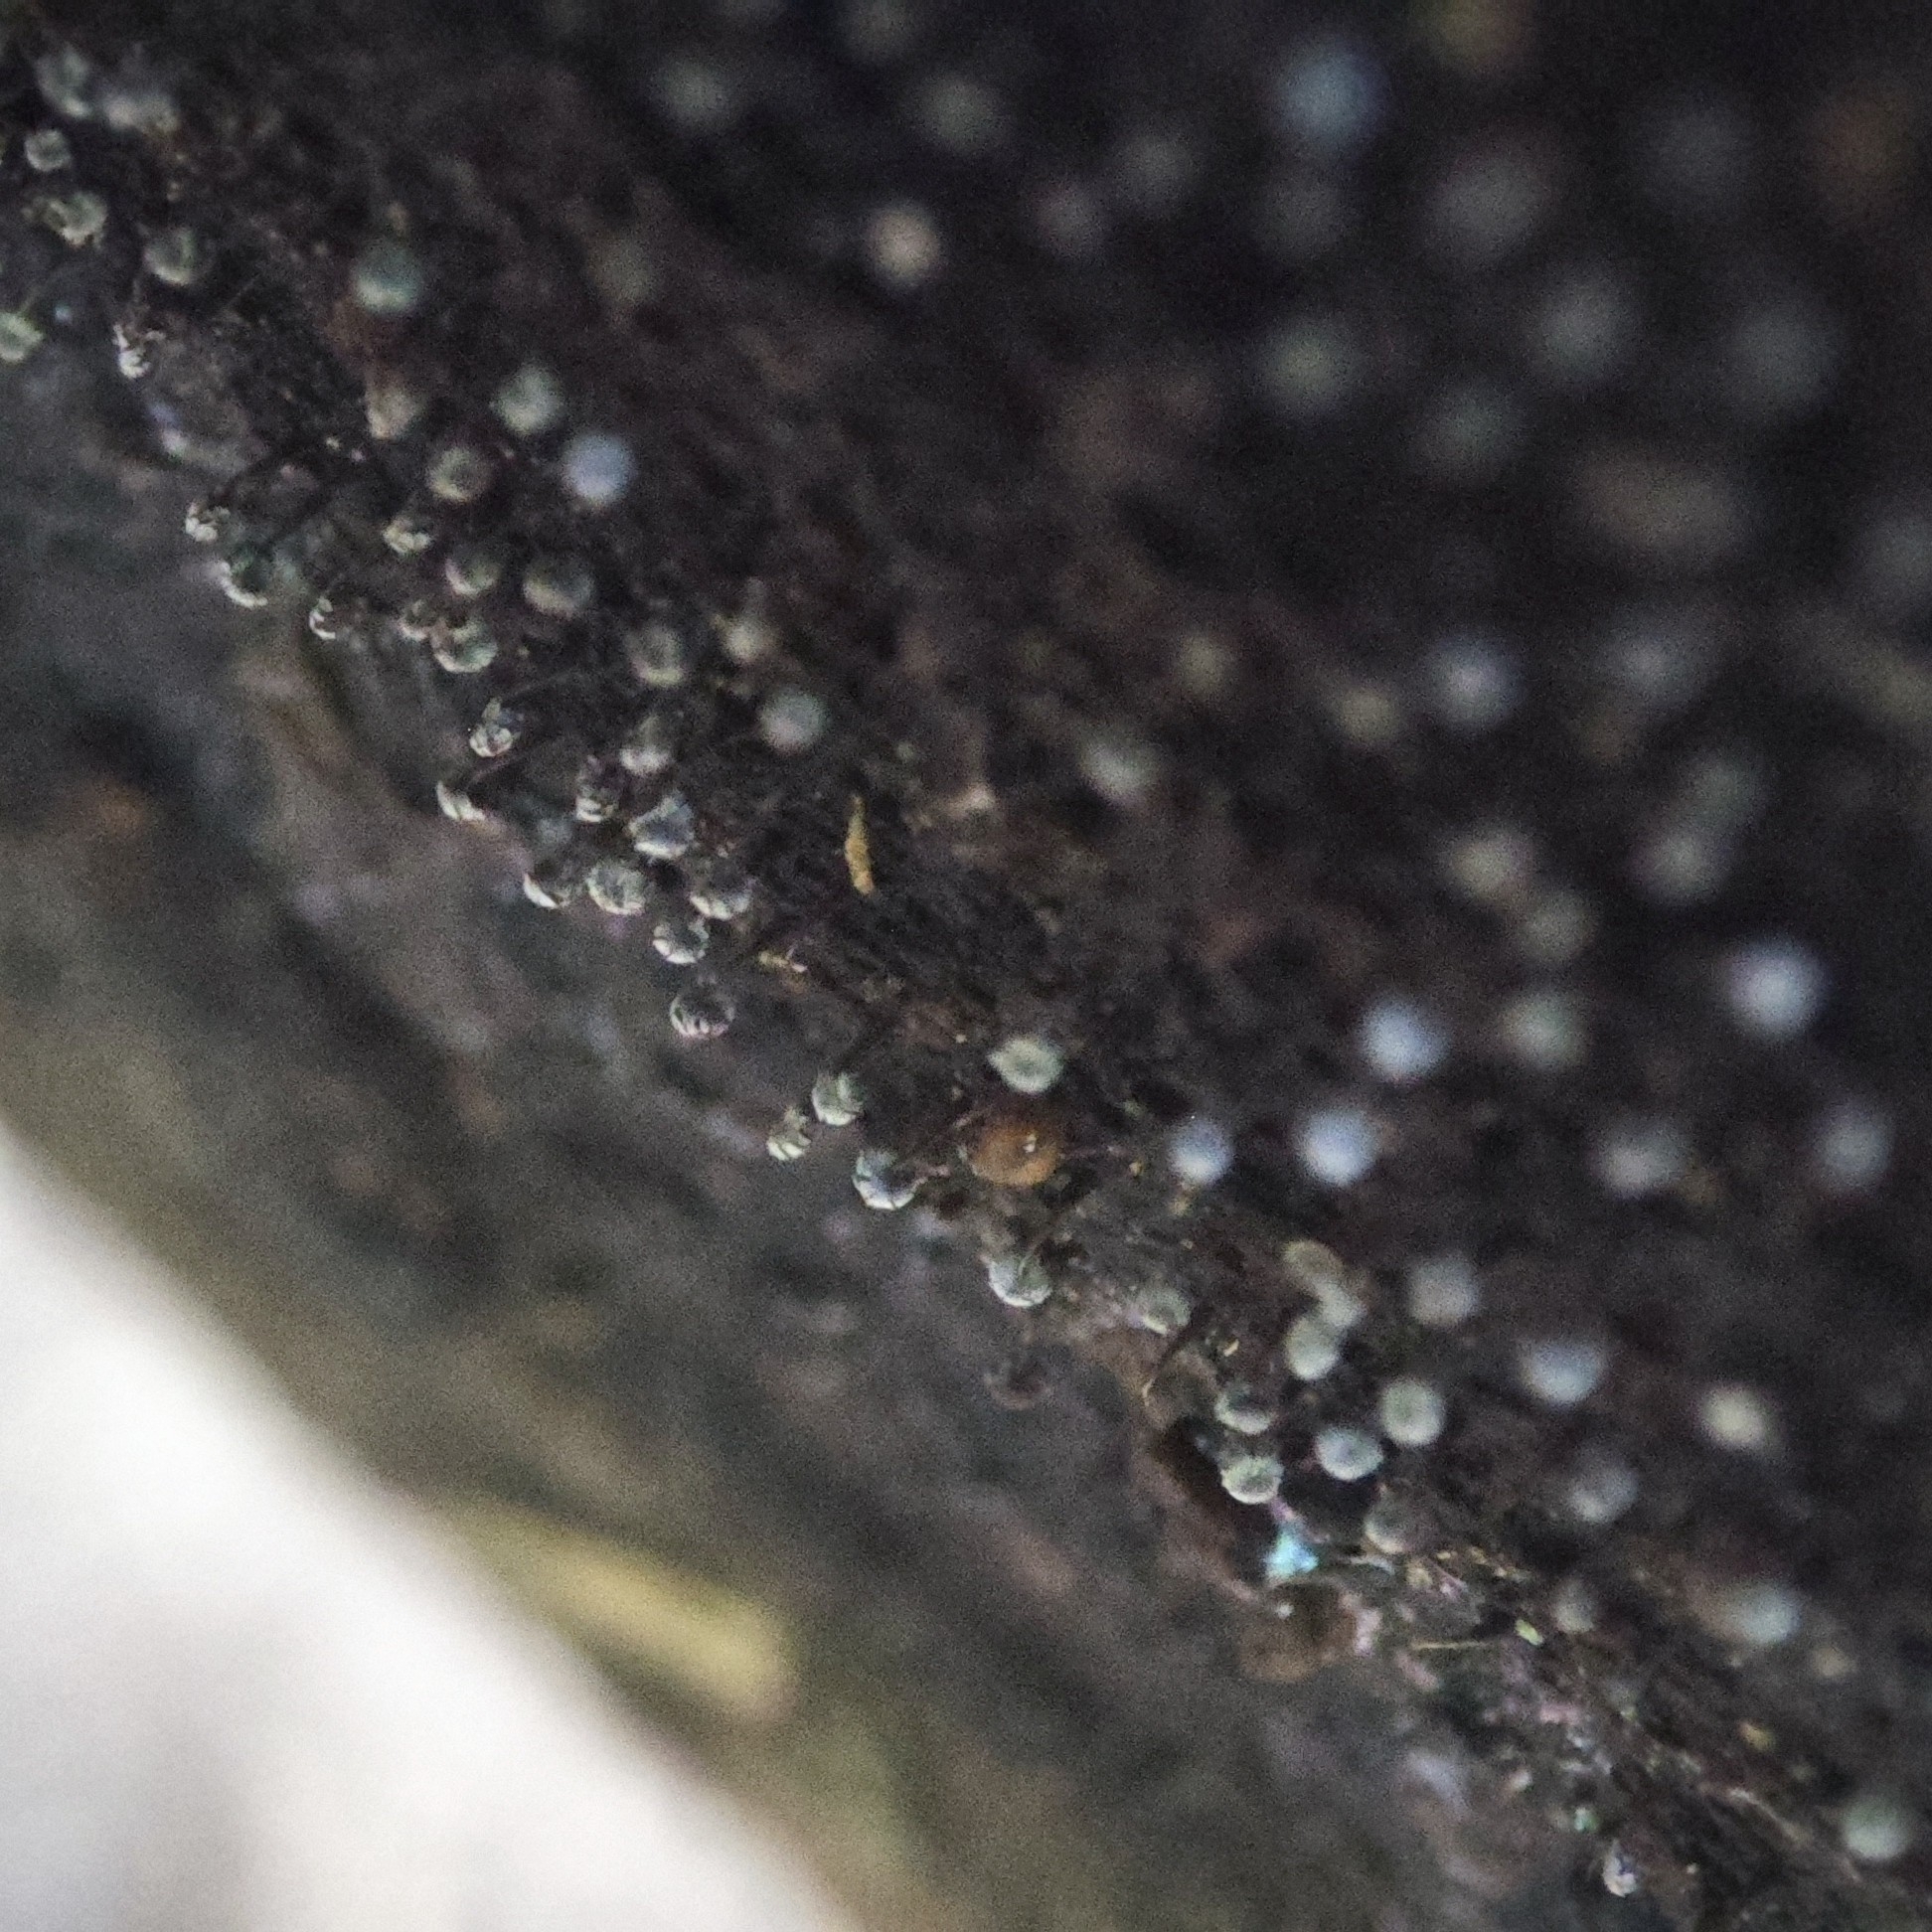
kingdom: Protozoa
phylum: Mycetozoa
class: Myxomycetes
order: Physarales
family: Physaraceae
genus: Physarum
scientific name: Physarum album
